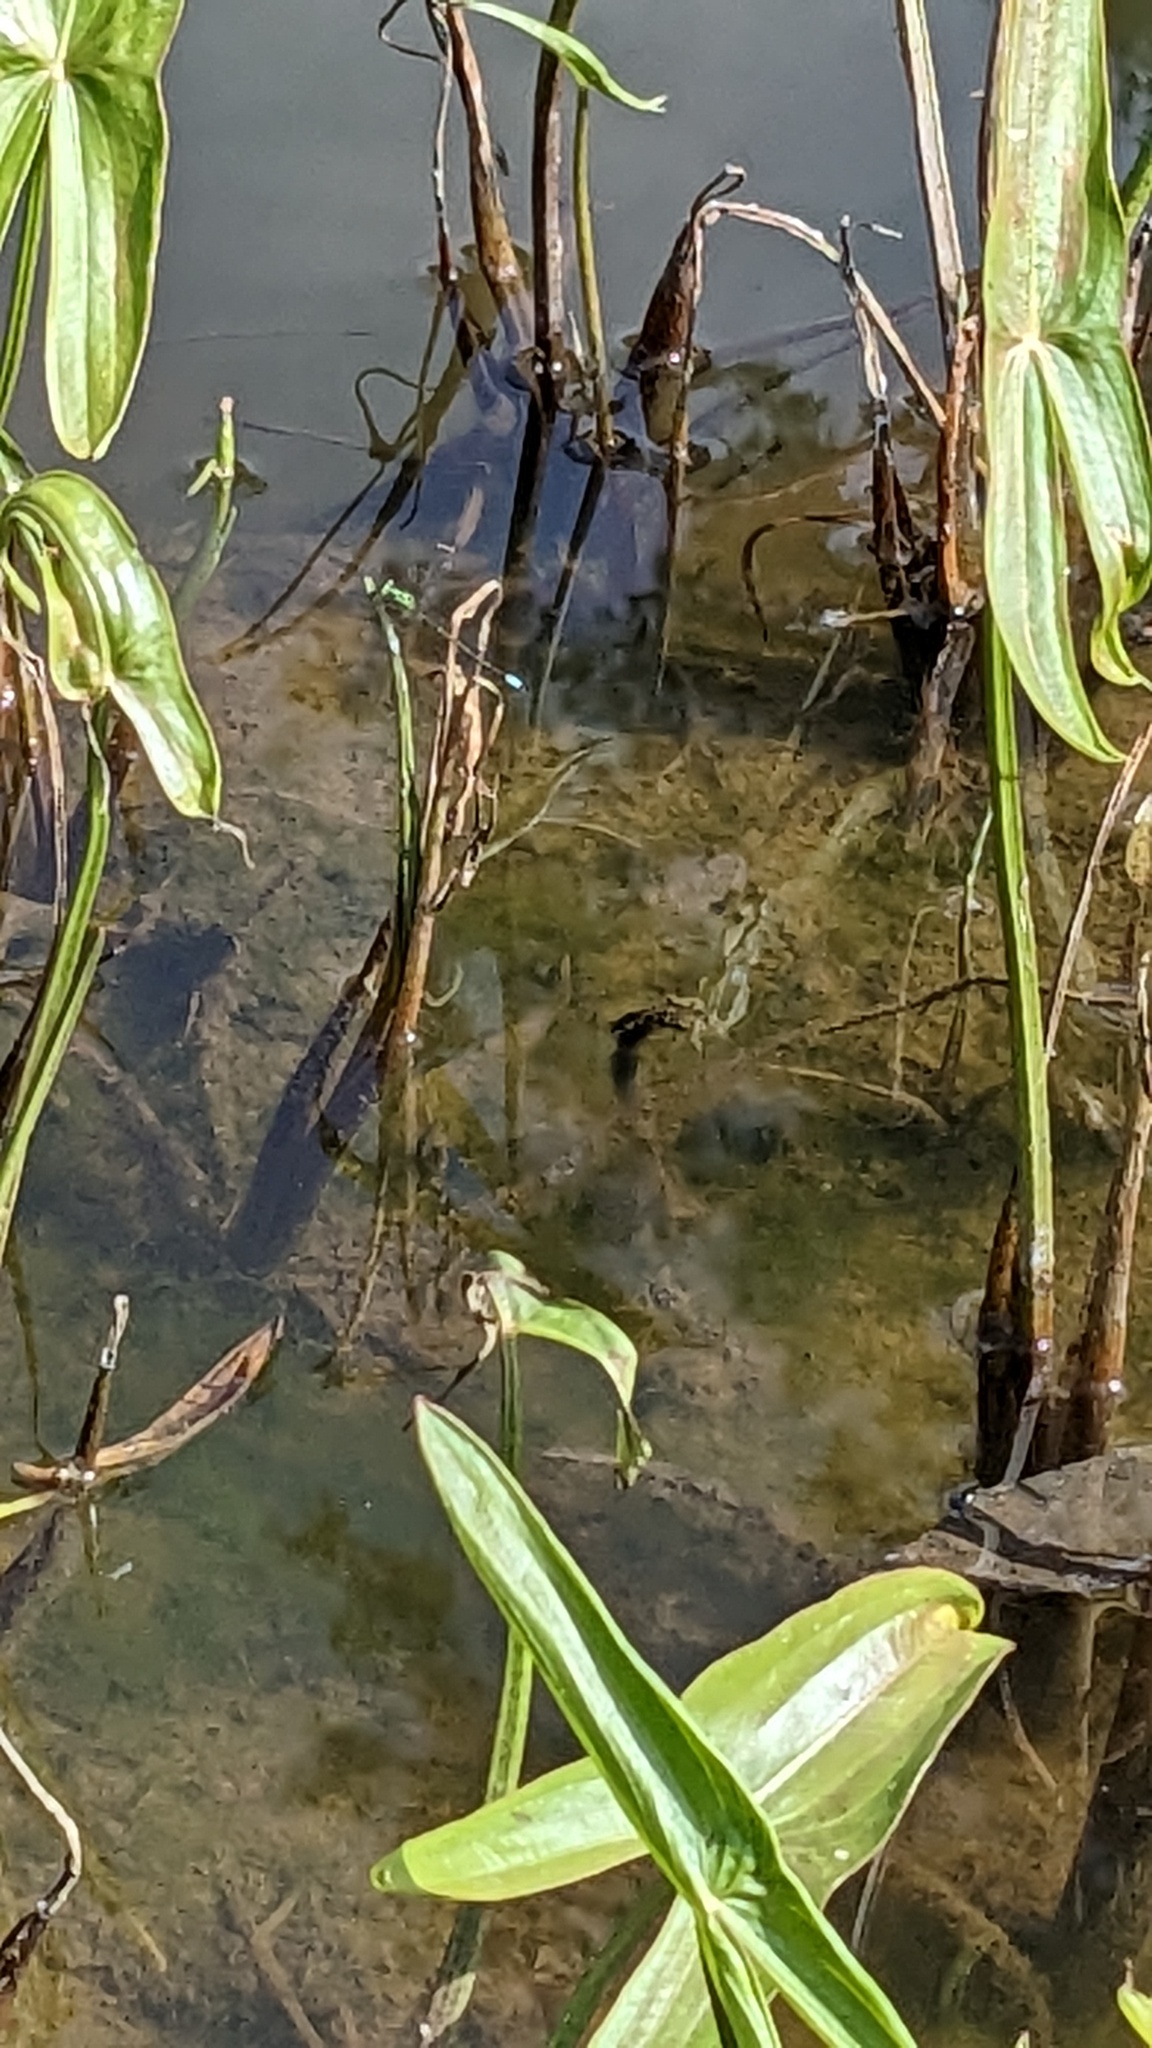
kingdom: Animalia
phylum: Arthropoda
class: Insecta
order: Odonata
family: Coenagrionidae
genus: Ischnura
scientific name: Ischnura verticalis
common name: Eastern forktail
